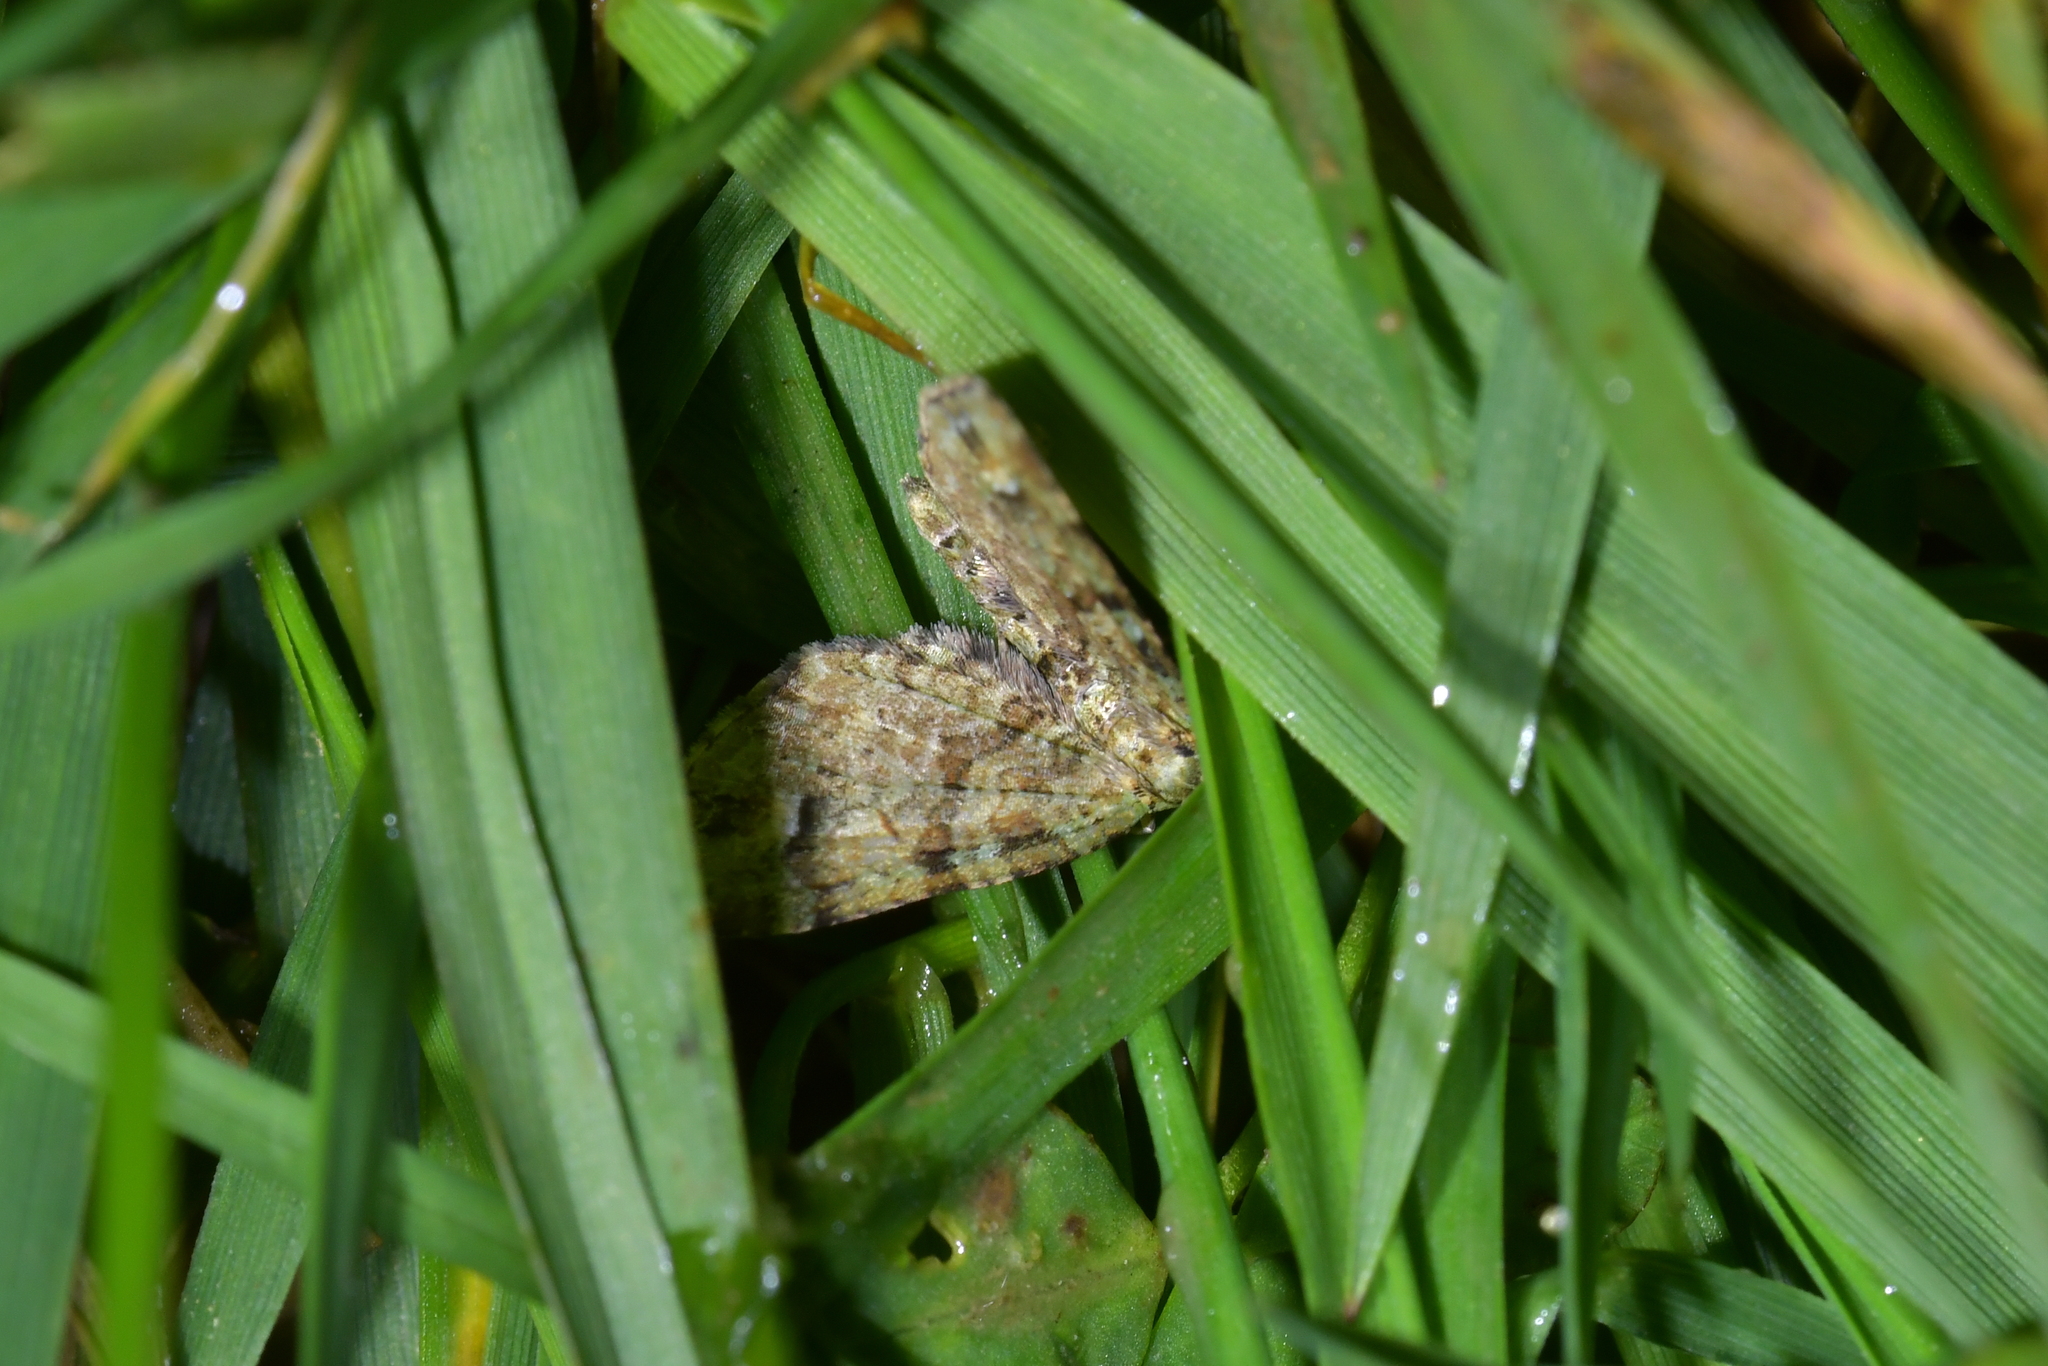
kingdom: Animalia
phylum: Arthropoda
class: Insecta
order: Lepidoptera
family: Geometridae
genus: Idaea
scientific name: Idaea mutanda
